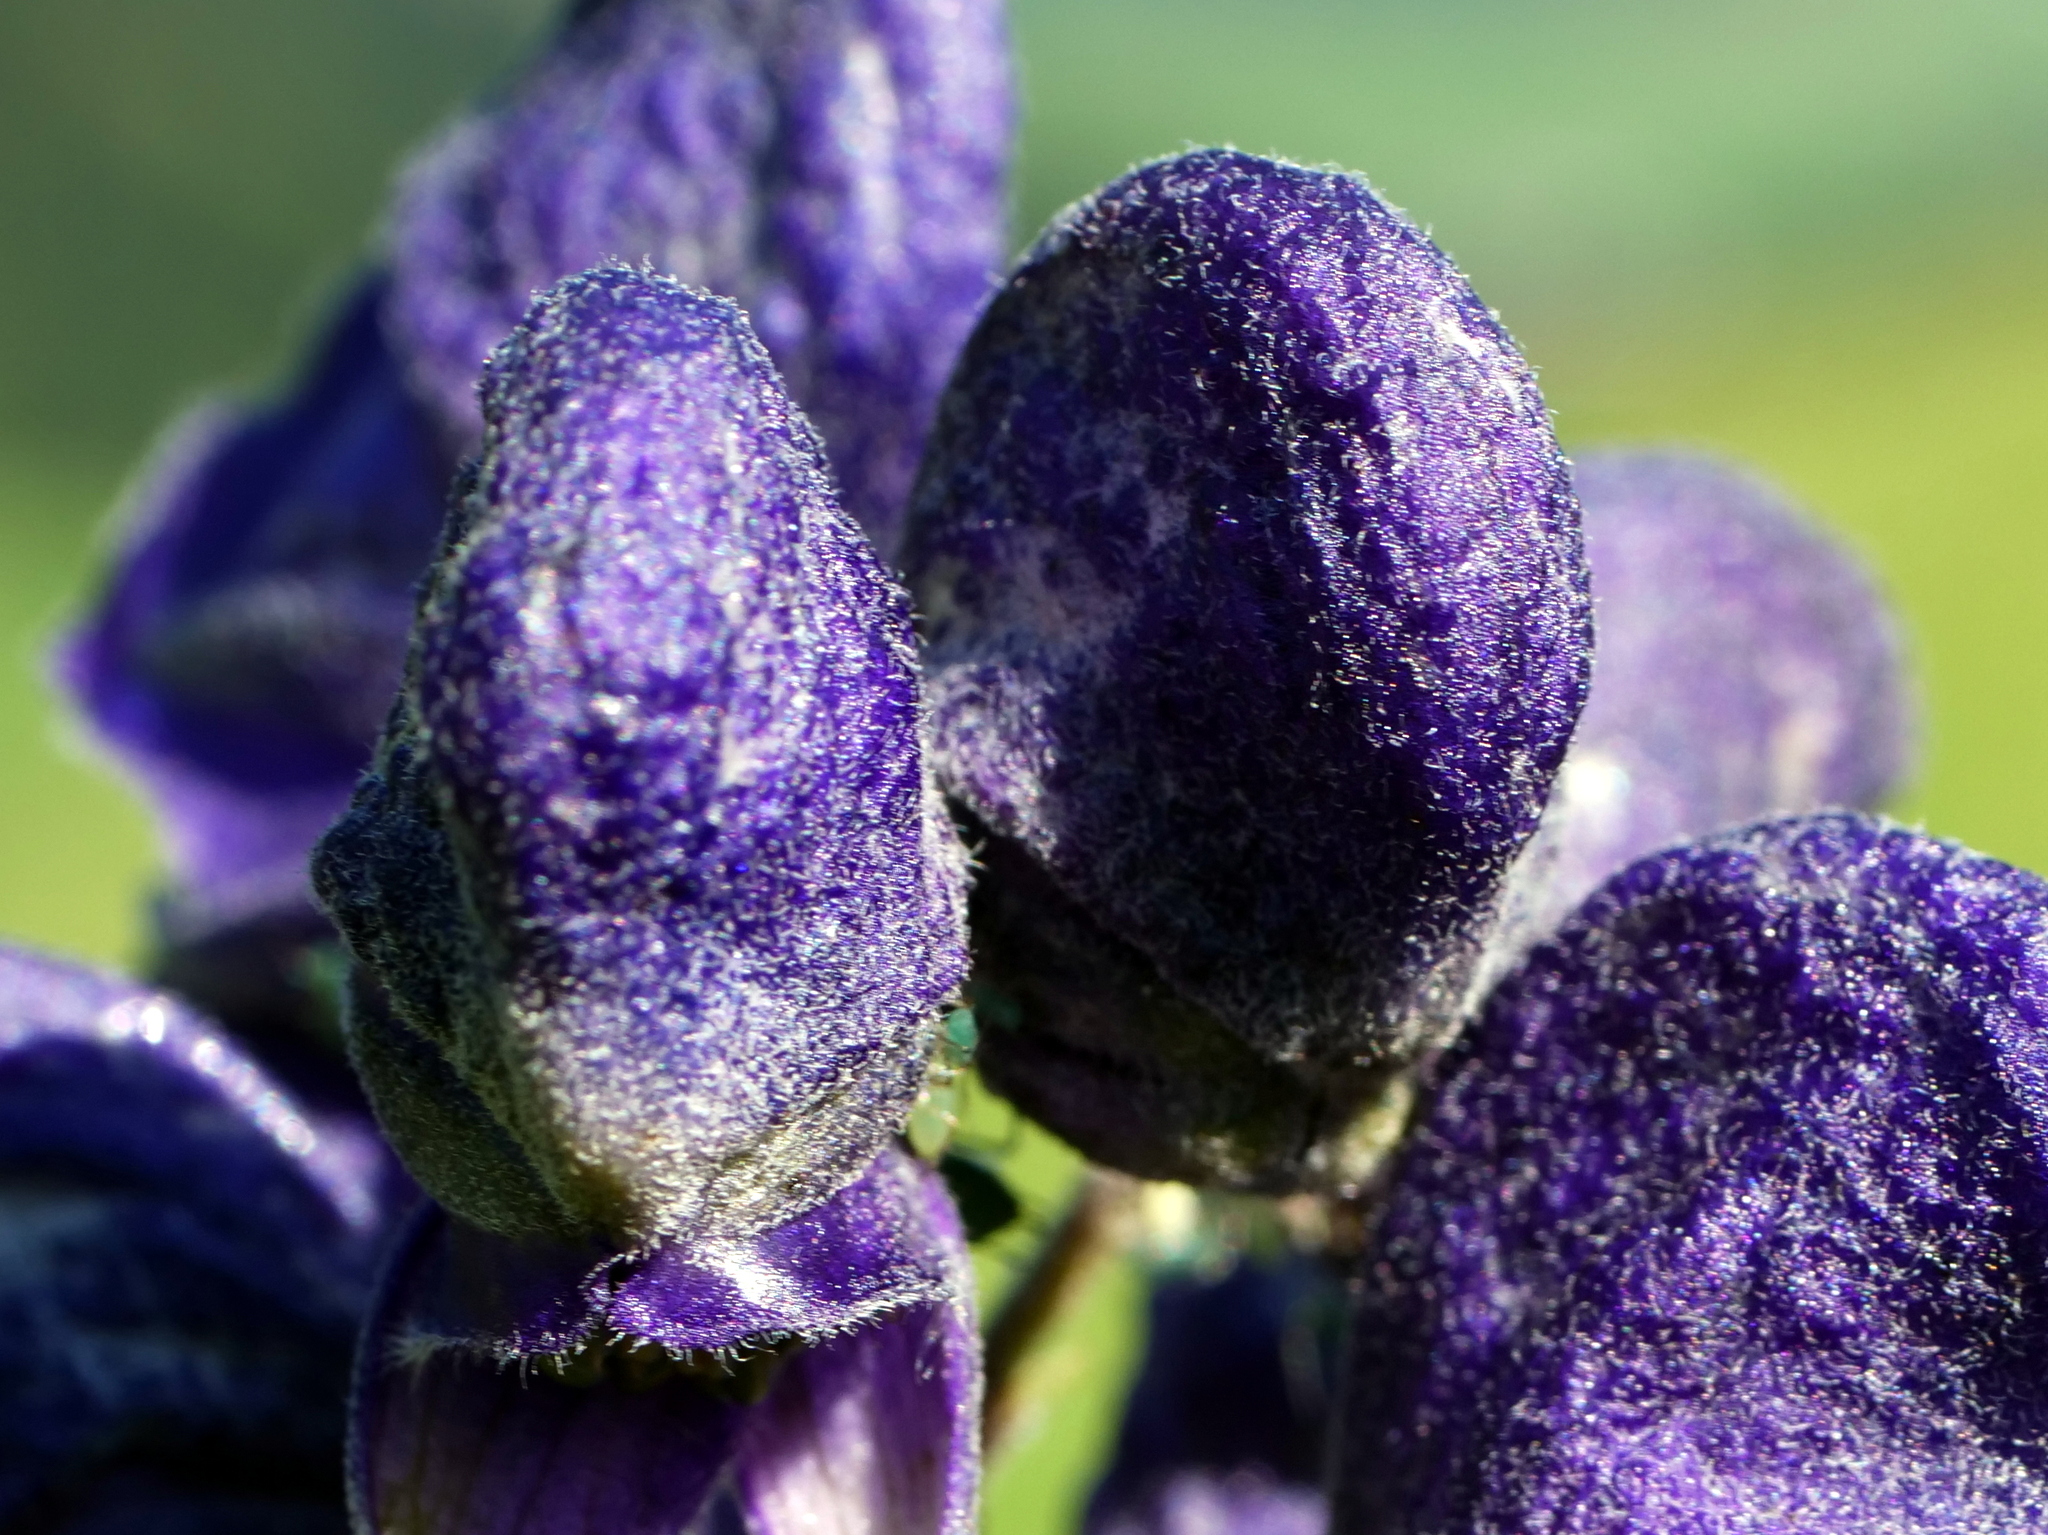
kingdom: Plantae
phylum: Tracheophyta
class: Magnoliopsida
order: Ranunculales
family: Ranunculaceae
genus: Aconitum
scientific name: Aconitum napellus
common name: Garden monkshood
